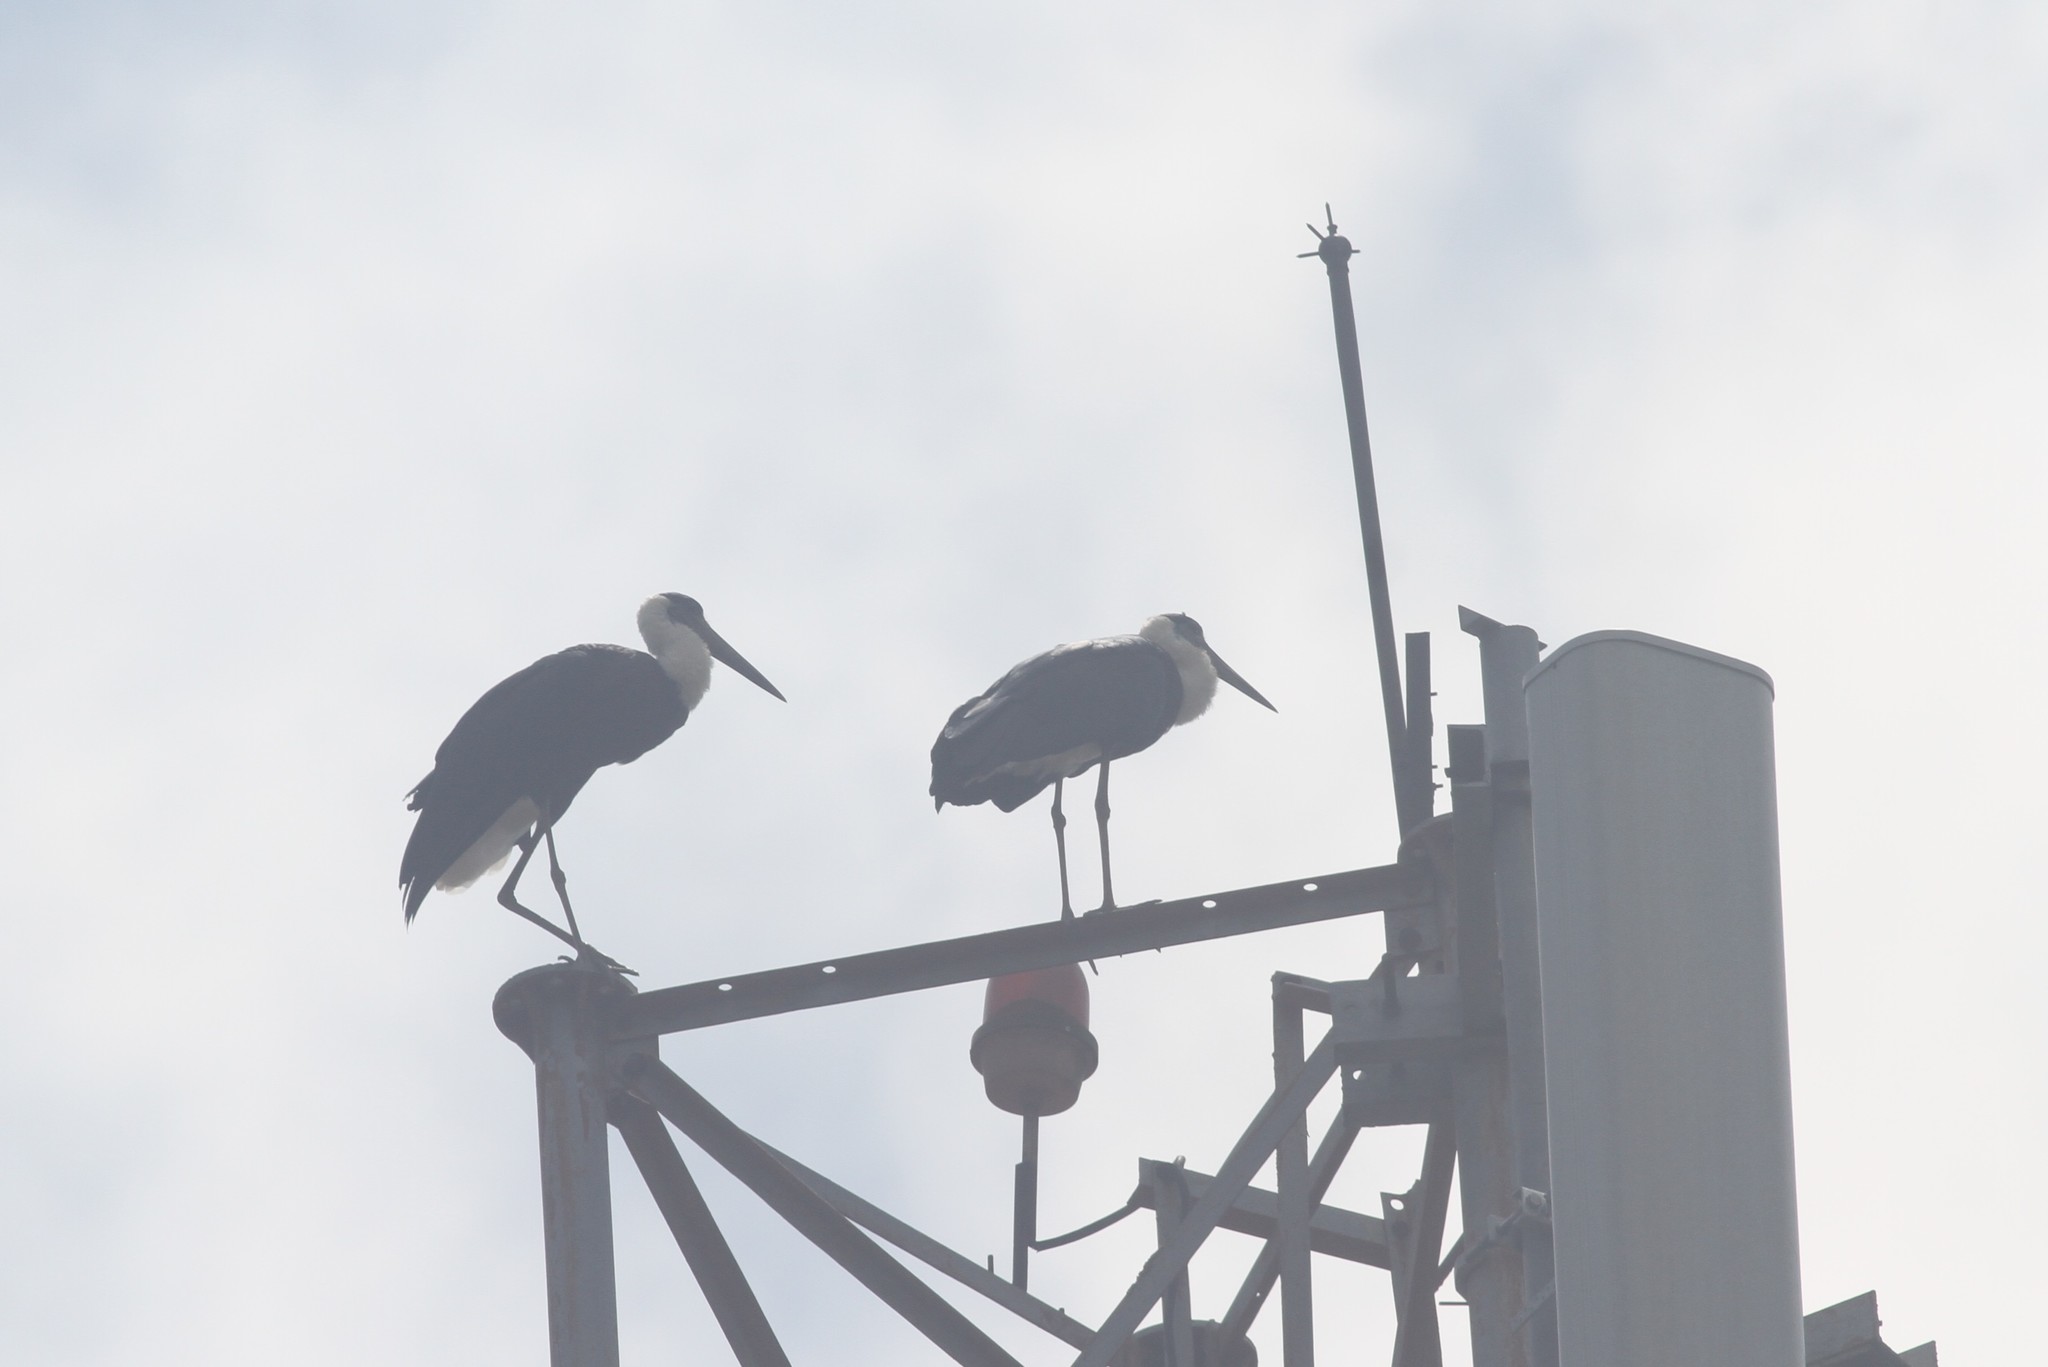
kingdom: Animalia
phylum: Chordata
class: Aves
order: Ciconiiformes
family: Ciconiidae
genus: Ciconia
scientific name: Ciconia episcopus
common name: Woolly-necked stork
